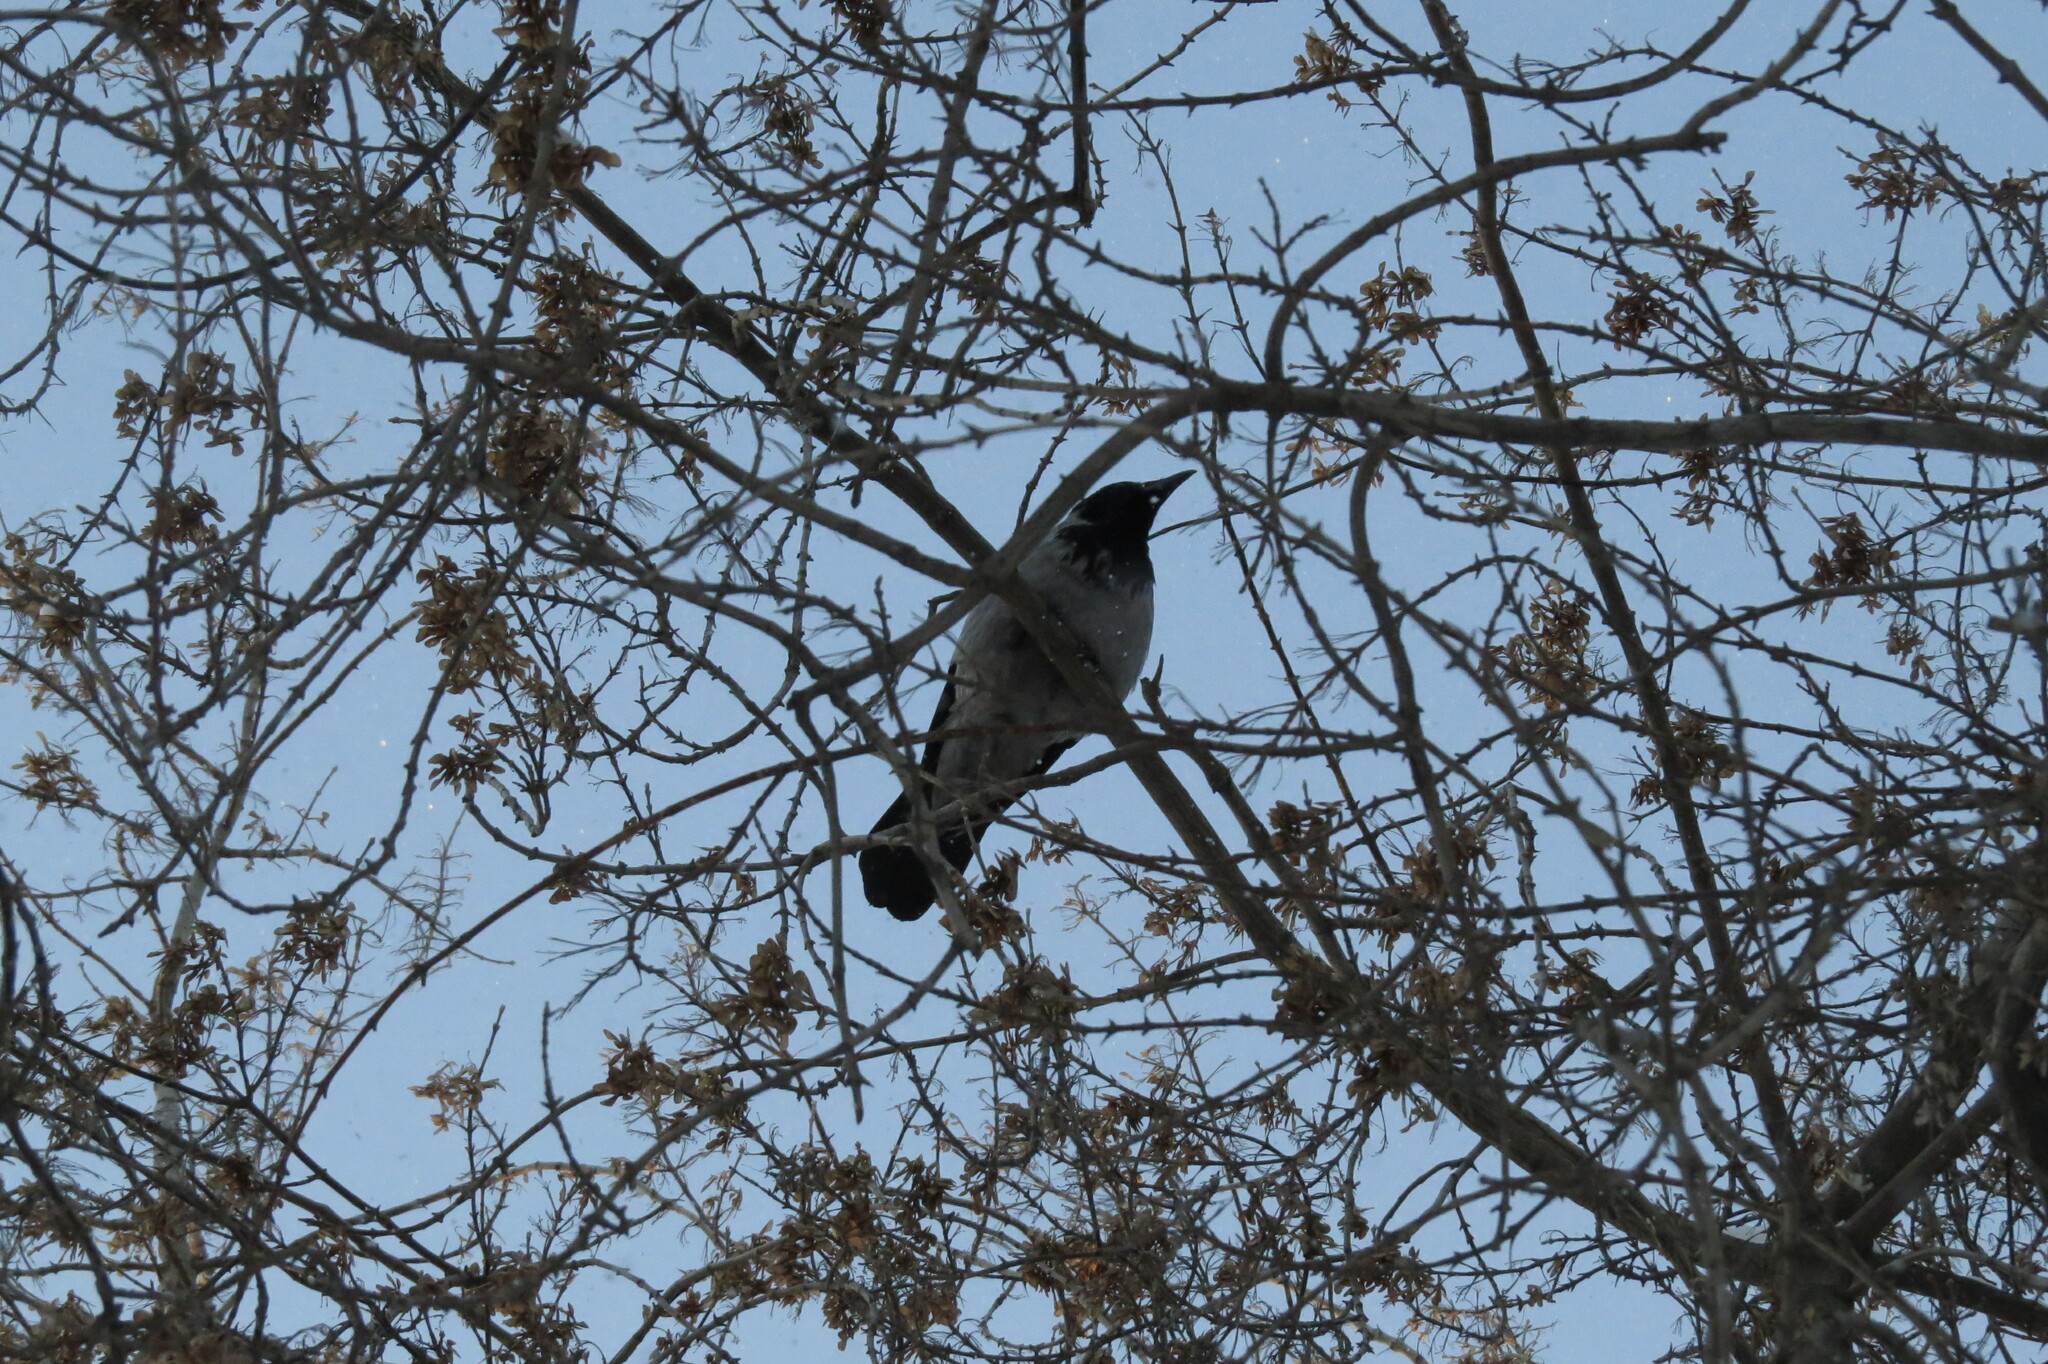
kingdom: Animalia
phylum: Chordata
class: Aves
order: Passeriformes
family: Corvidae
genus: Corvus
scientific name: Corvus cornix
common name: Hooded crow
